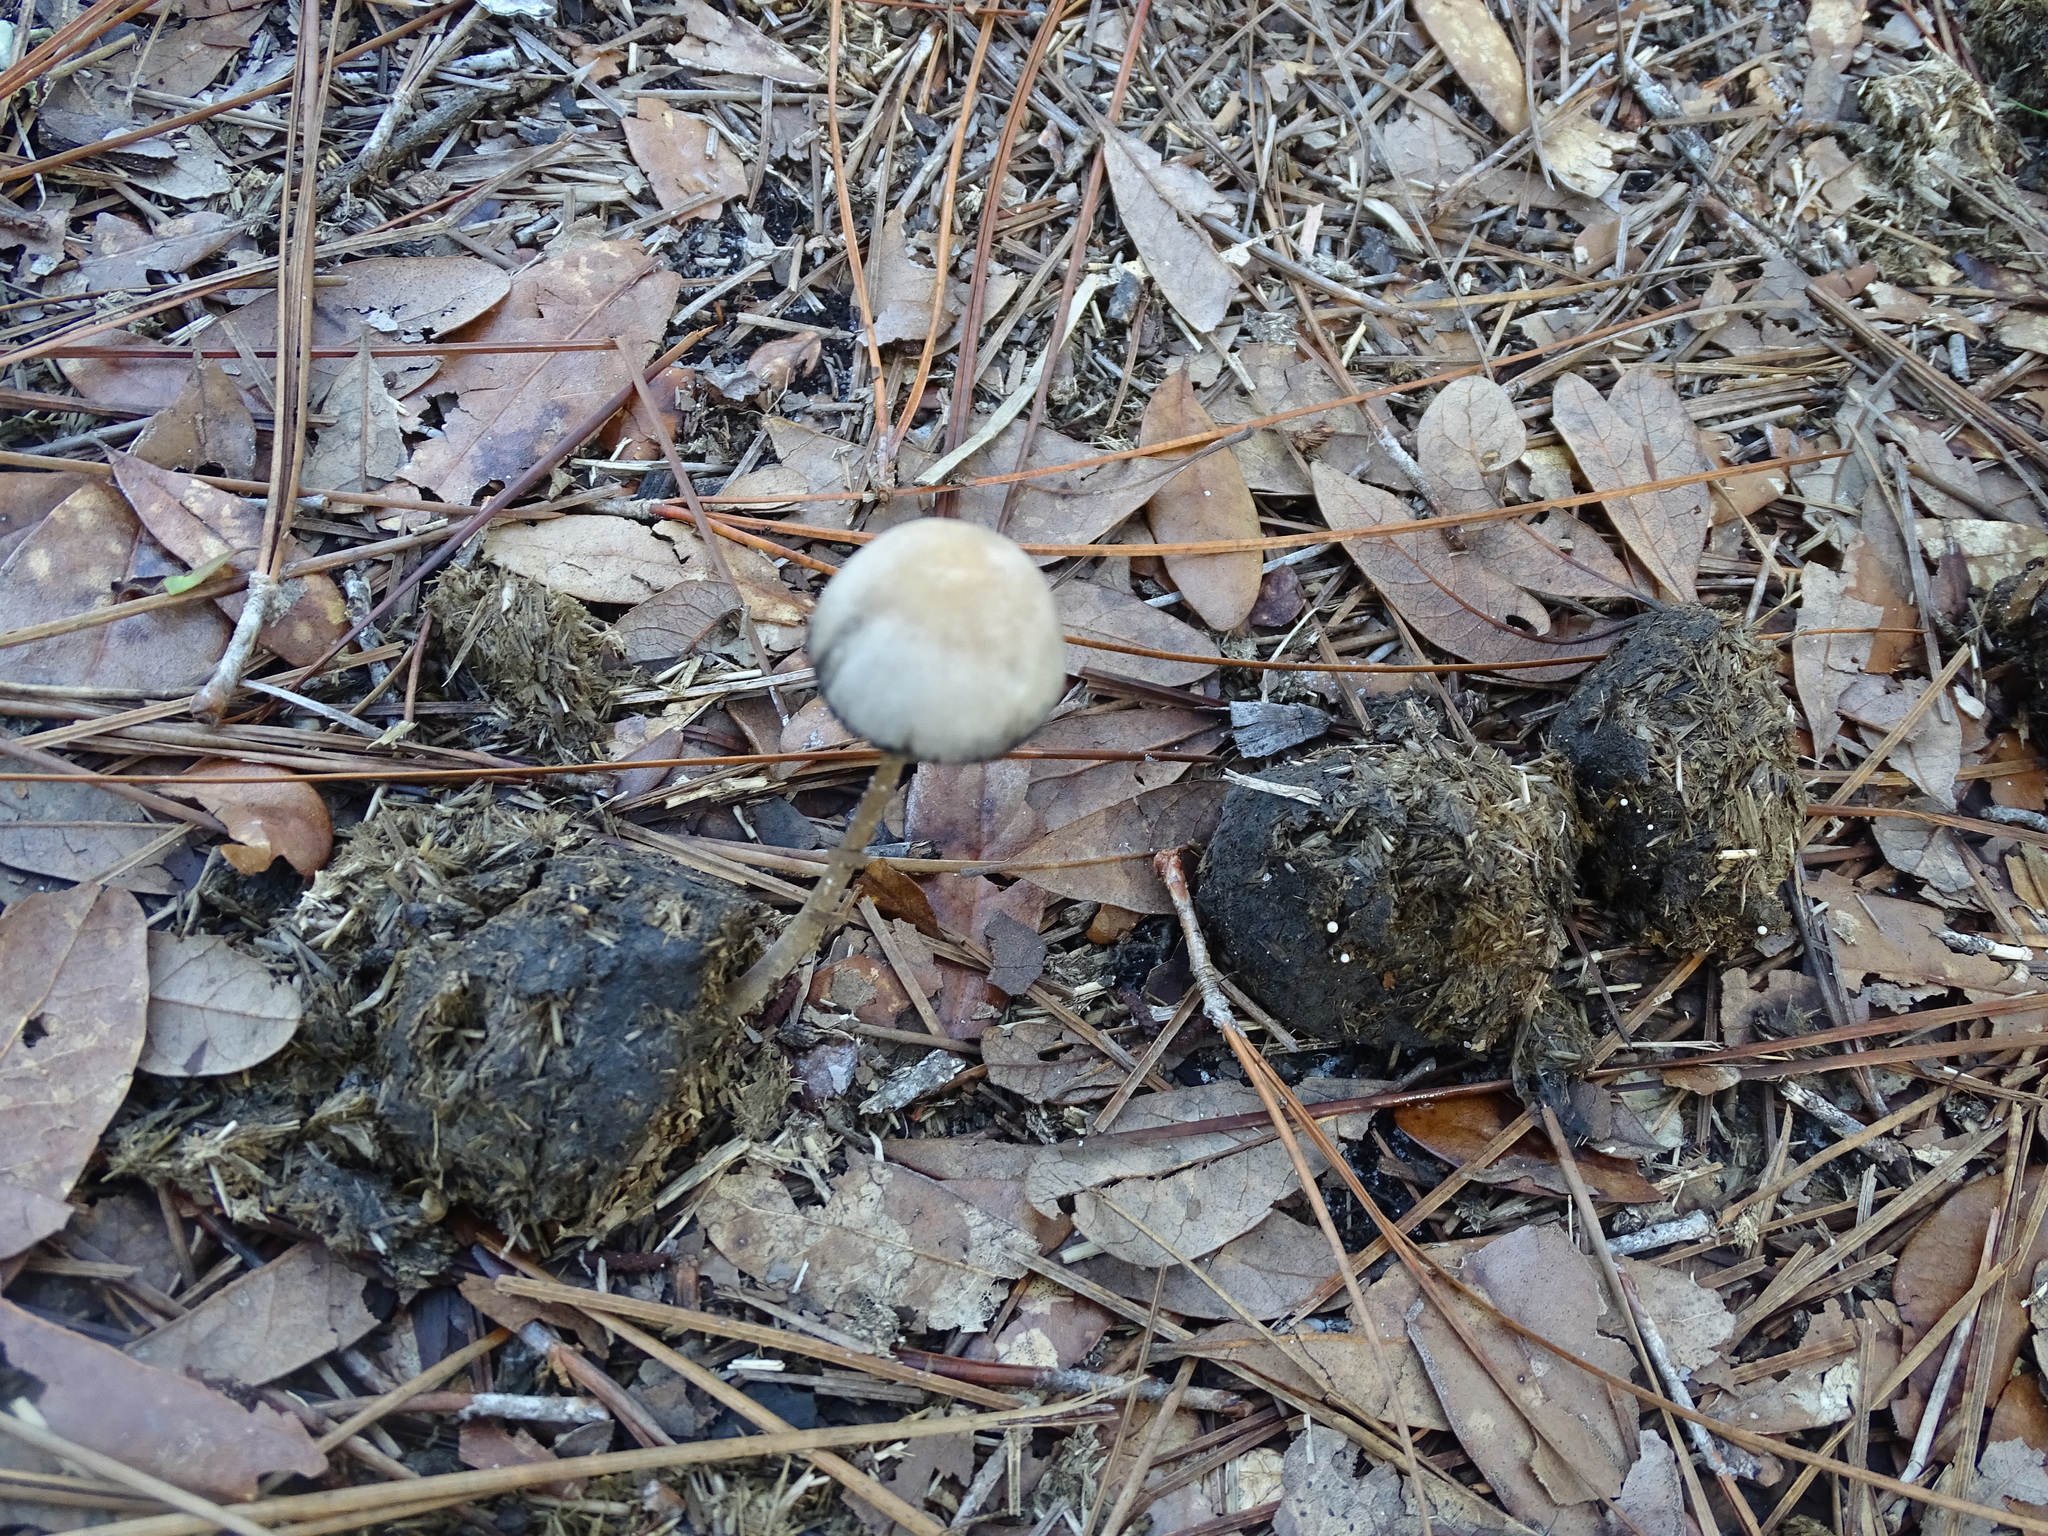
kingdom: Fungi
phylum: Basidiomycota
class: Agaricomycetes
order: Agaricales
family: Bolbitiaceae
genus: Panaeolus
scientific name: Panaeolus cyanescens
